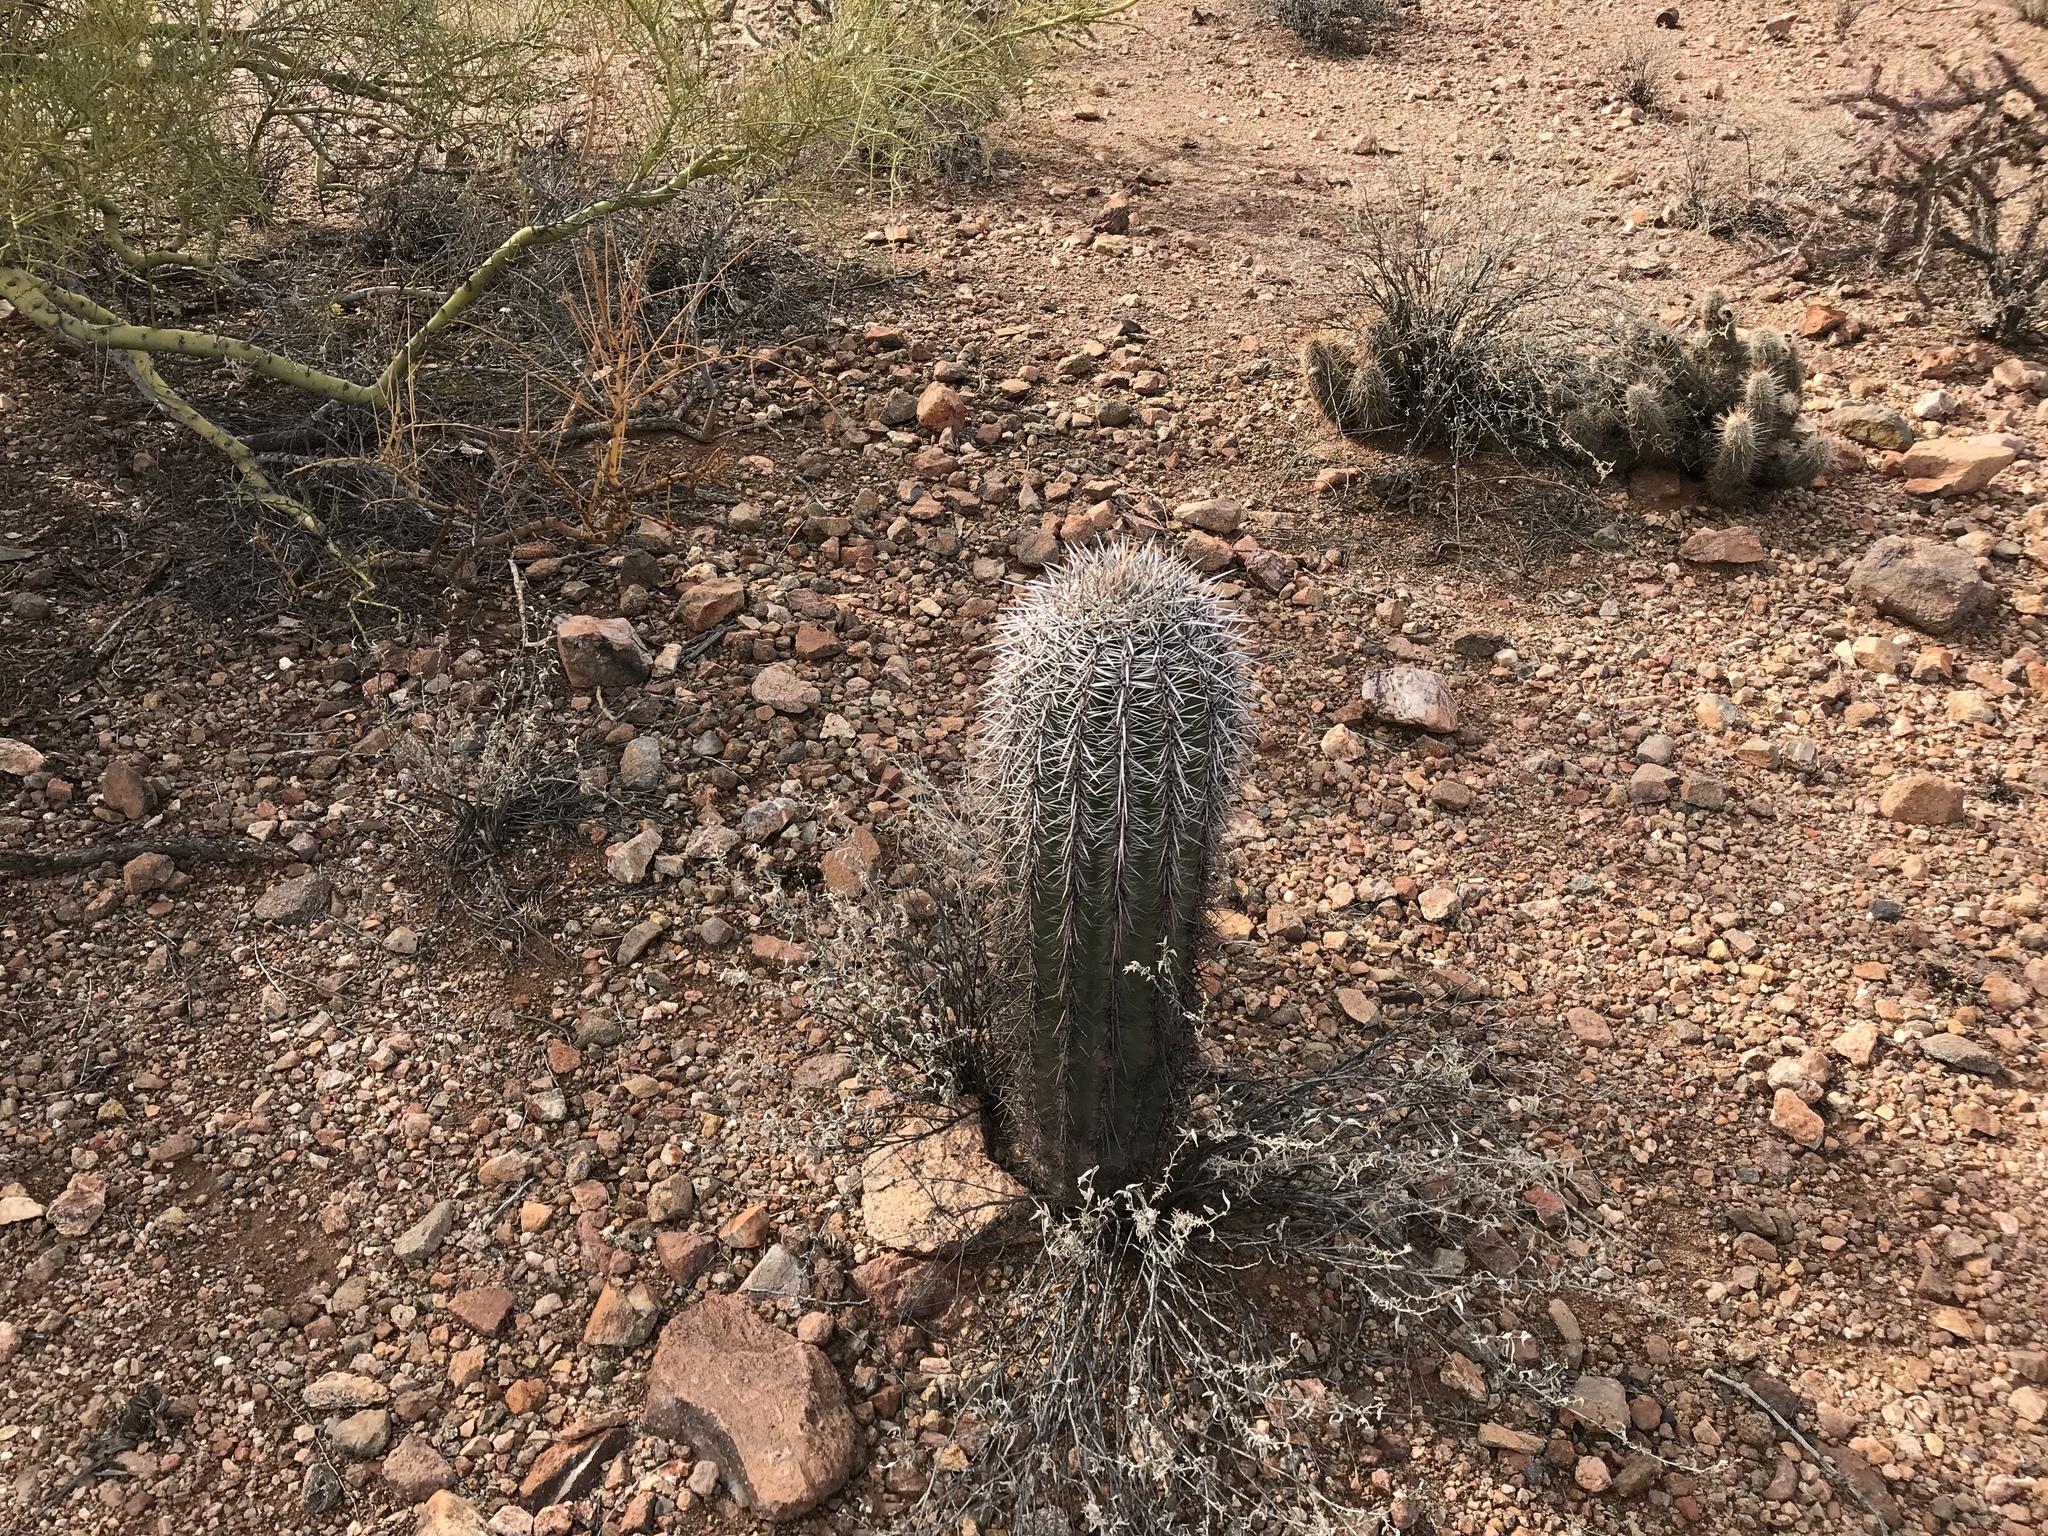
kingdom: Plantae
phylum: Tracheophyta
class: Magnoliopsida
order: Caryophyllales
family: Cactaceae
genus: Carnegiea
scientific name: Carnegiea gigantea
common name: Saguaro
